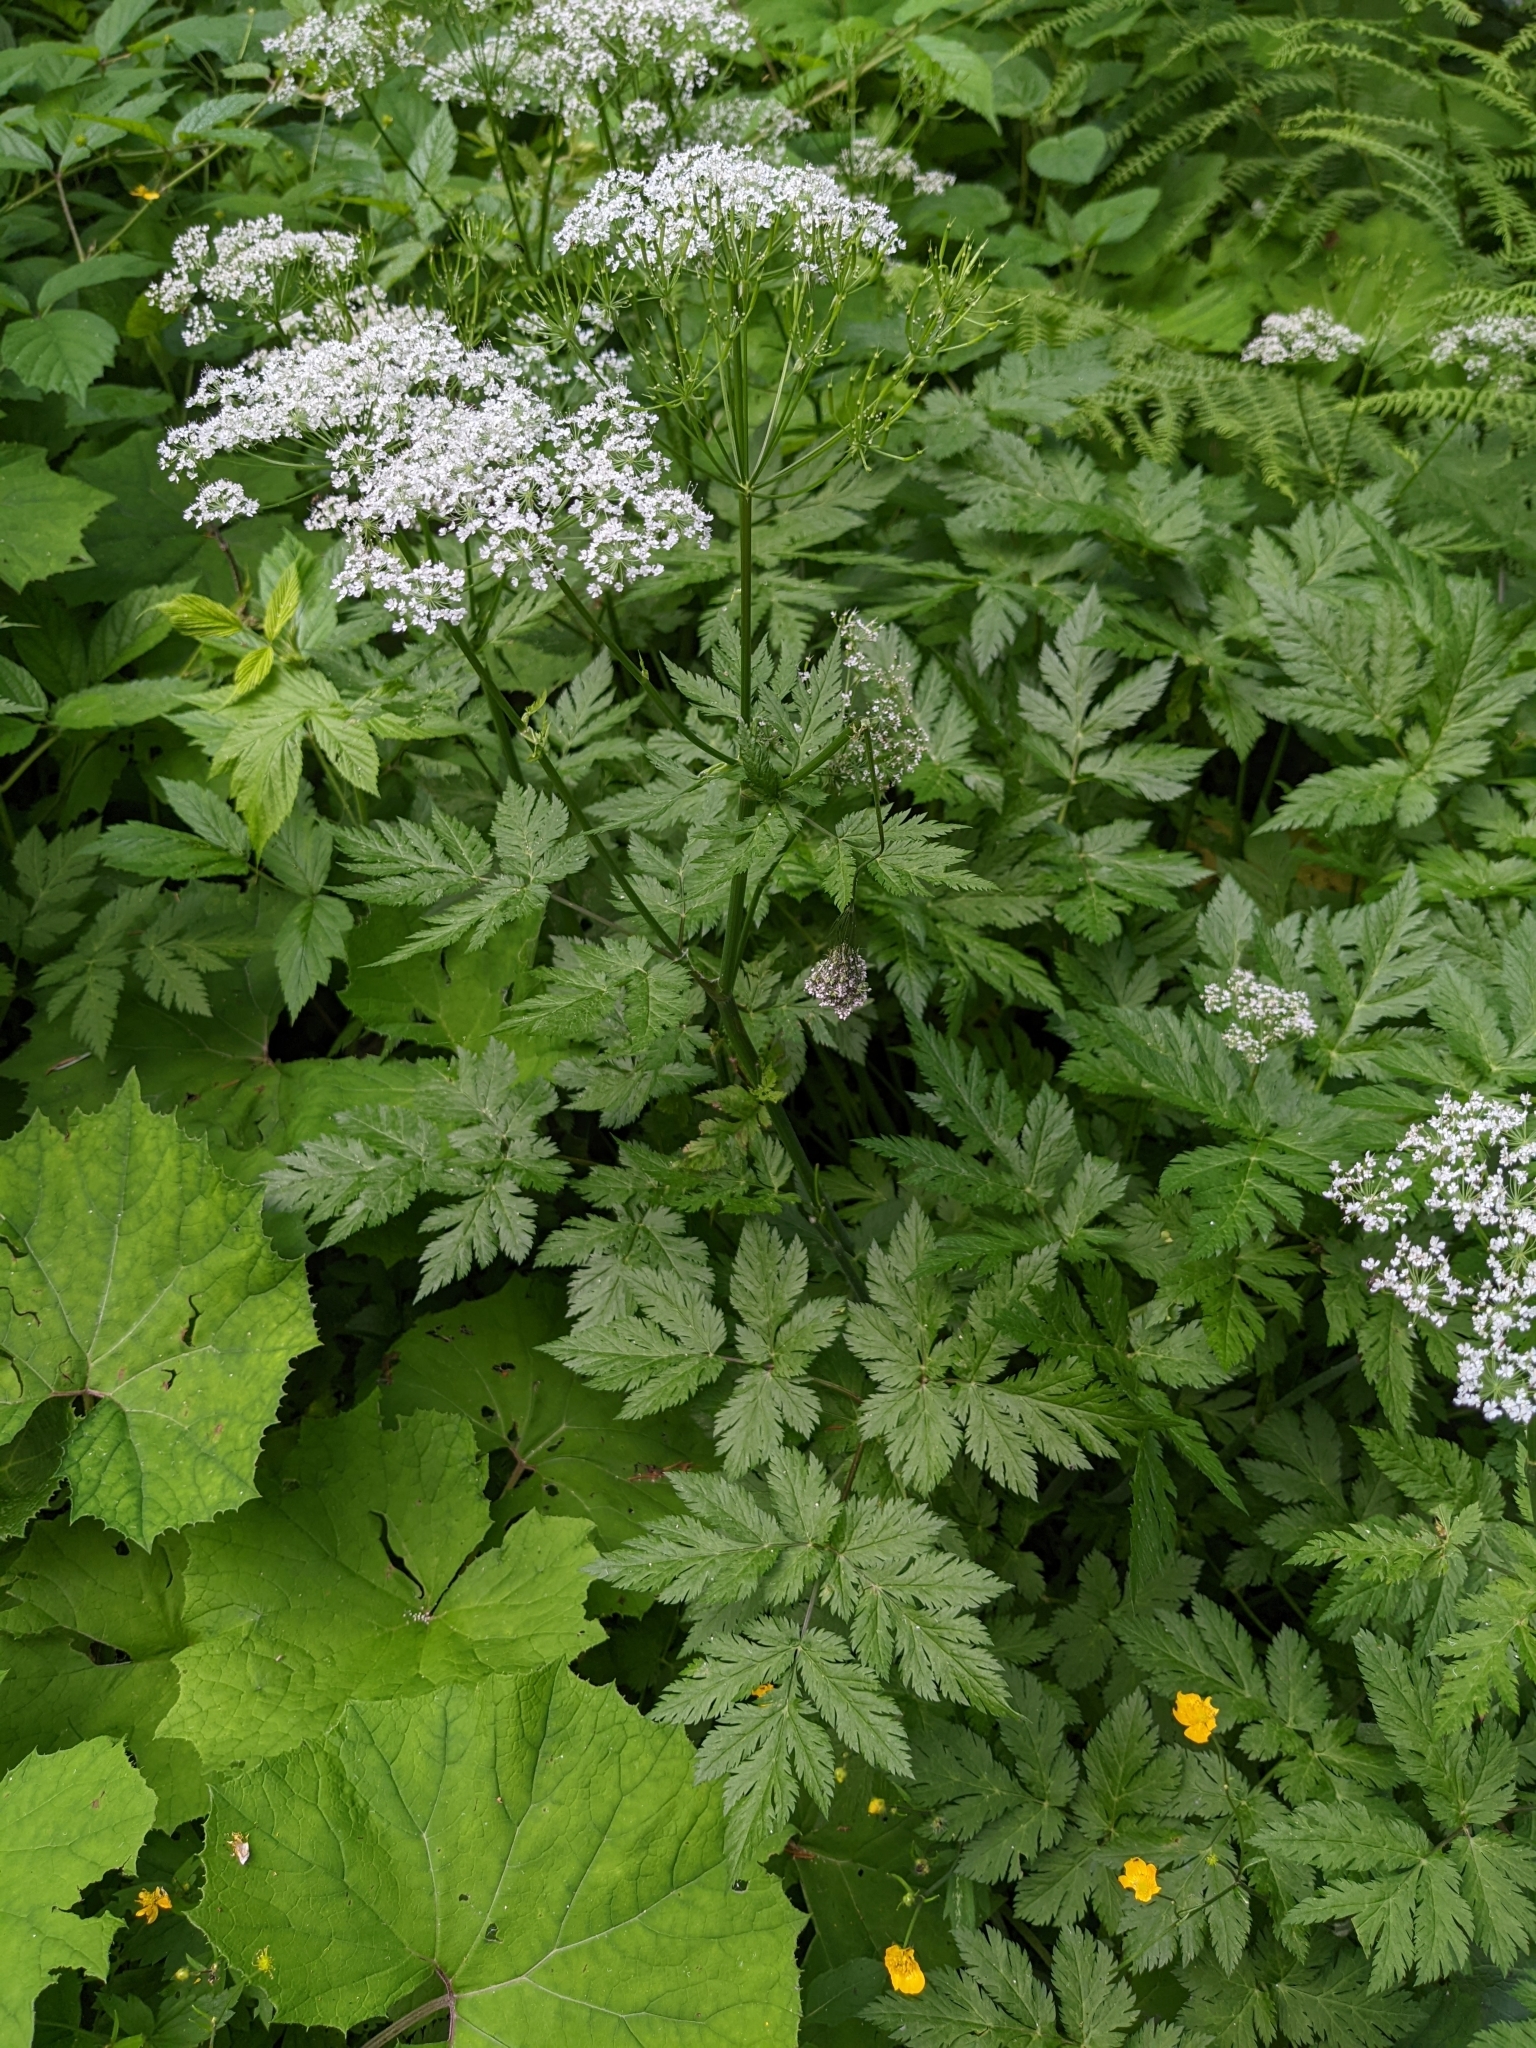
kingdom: Plantae
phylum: Tracheophyta
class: Magnoliopsida
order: Apiales
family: Apiaceae
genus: Chaerophyllum
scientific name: Chaerophyllum hirsutum
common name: Hairy chervil
